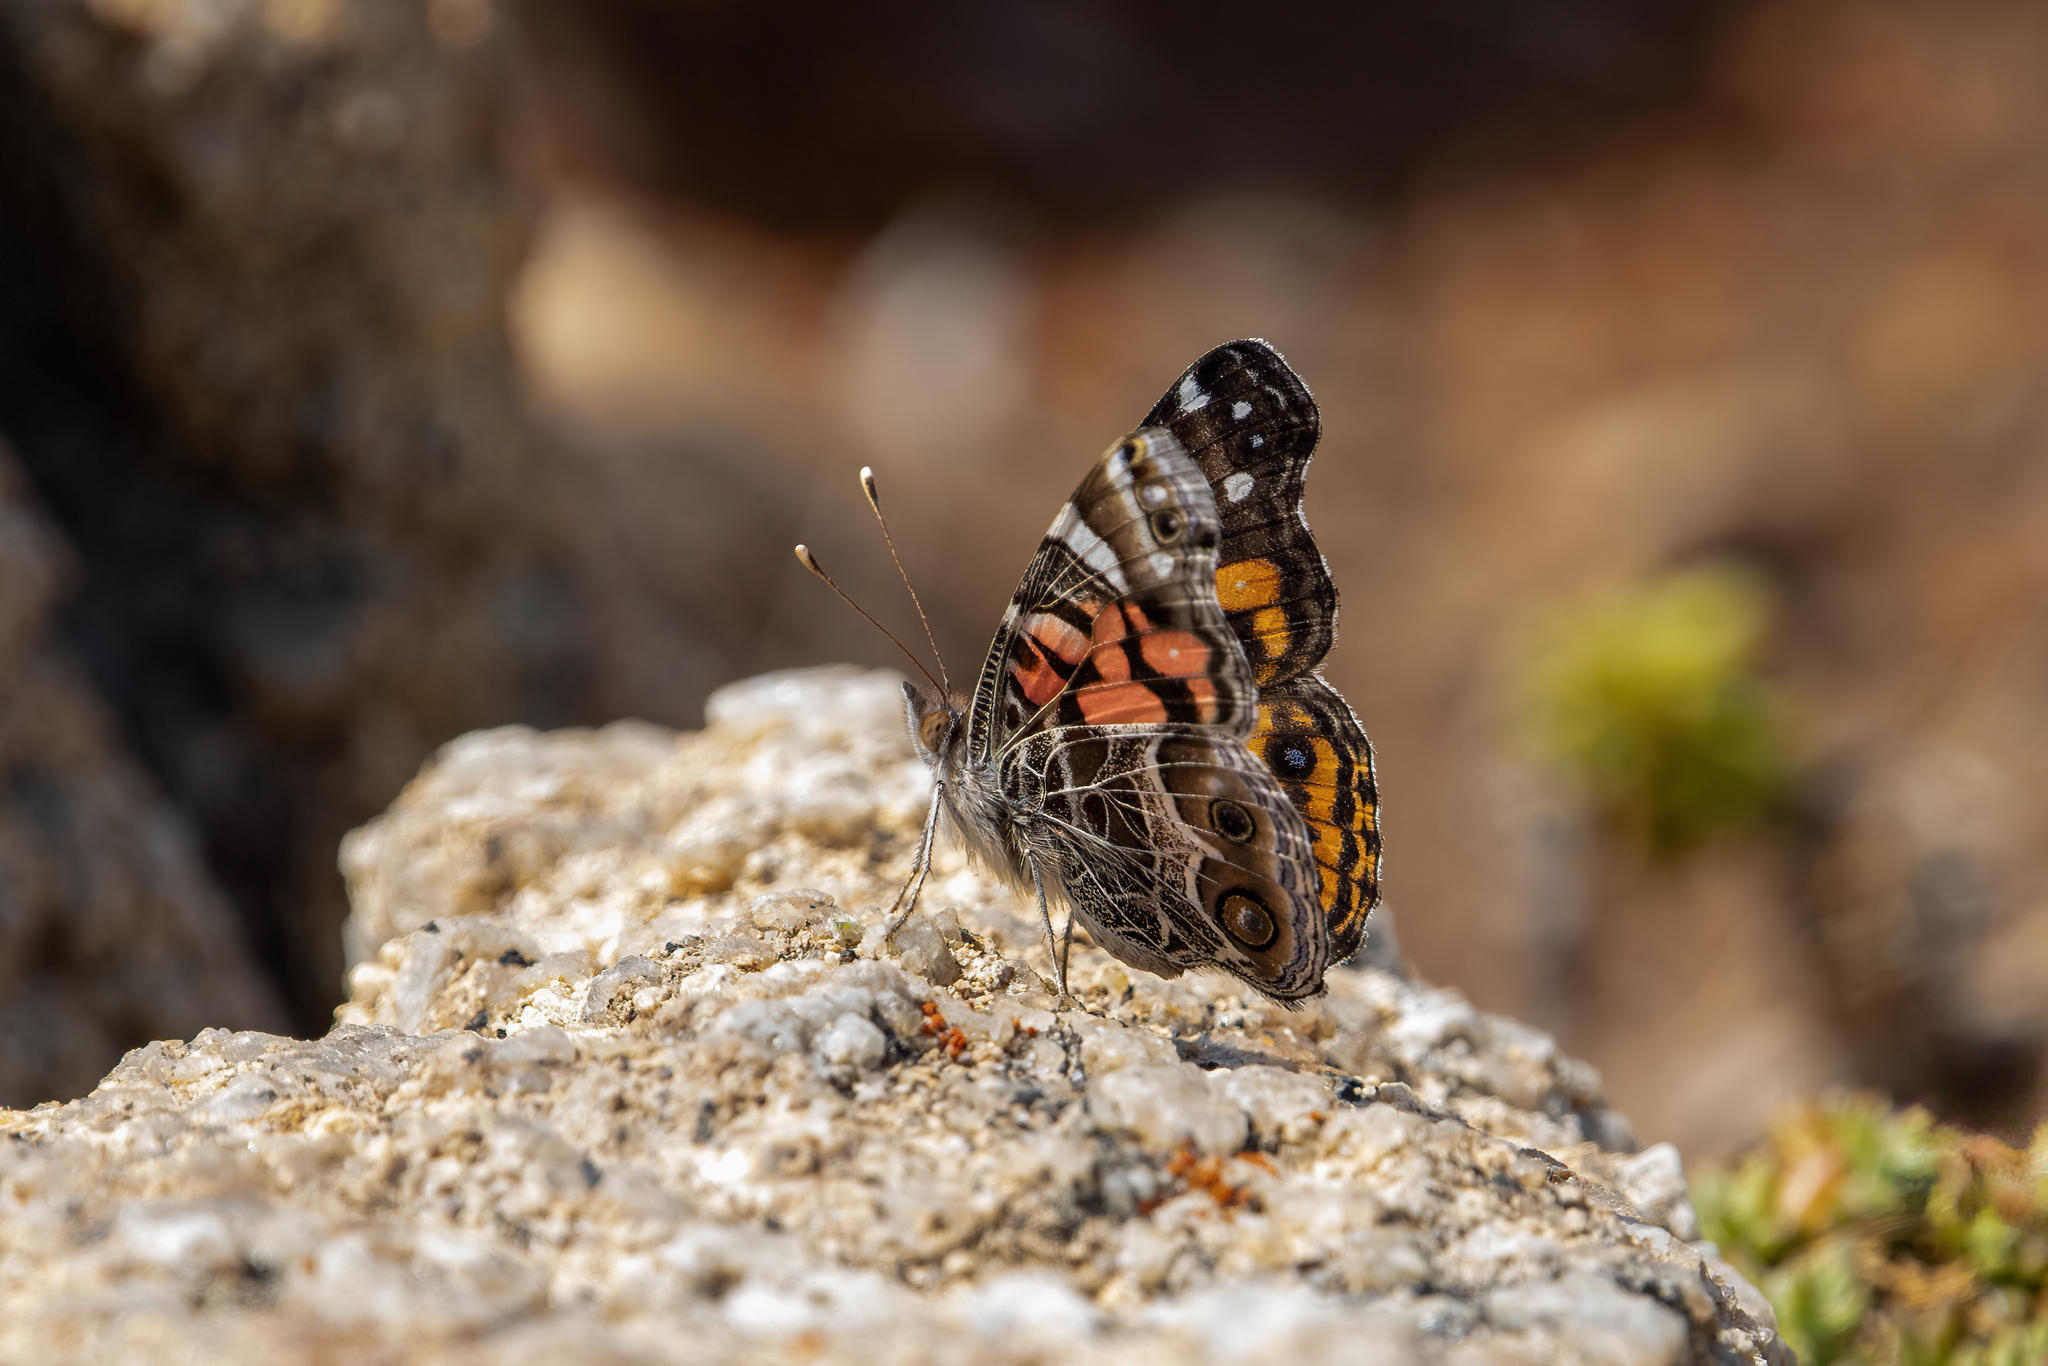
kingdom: Animalia
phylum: Arthropoda
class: Insecta
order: Lepidoptera
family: Nymphalidae
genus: Vanessa
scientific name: Vanessa virginiensis
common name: American lady
